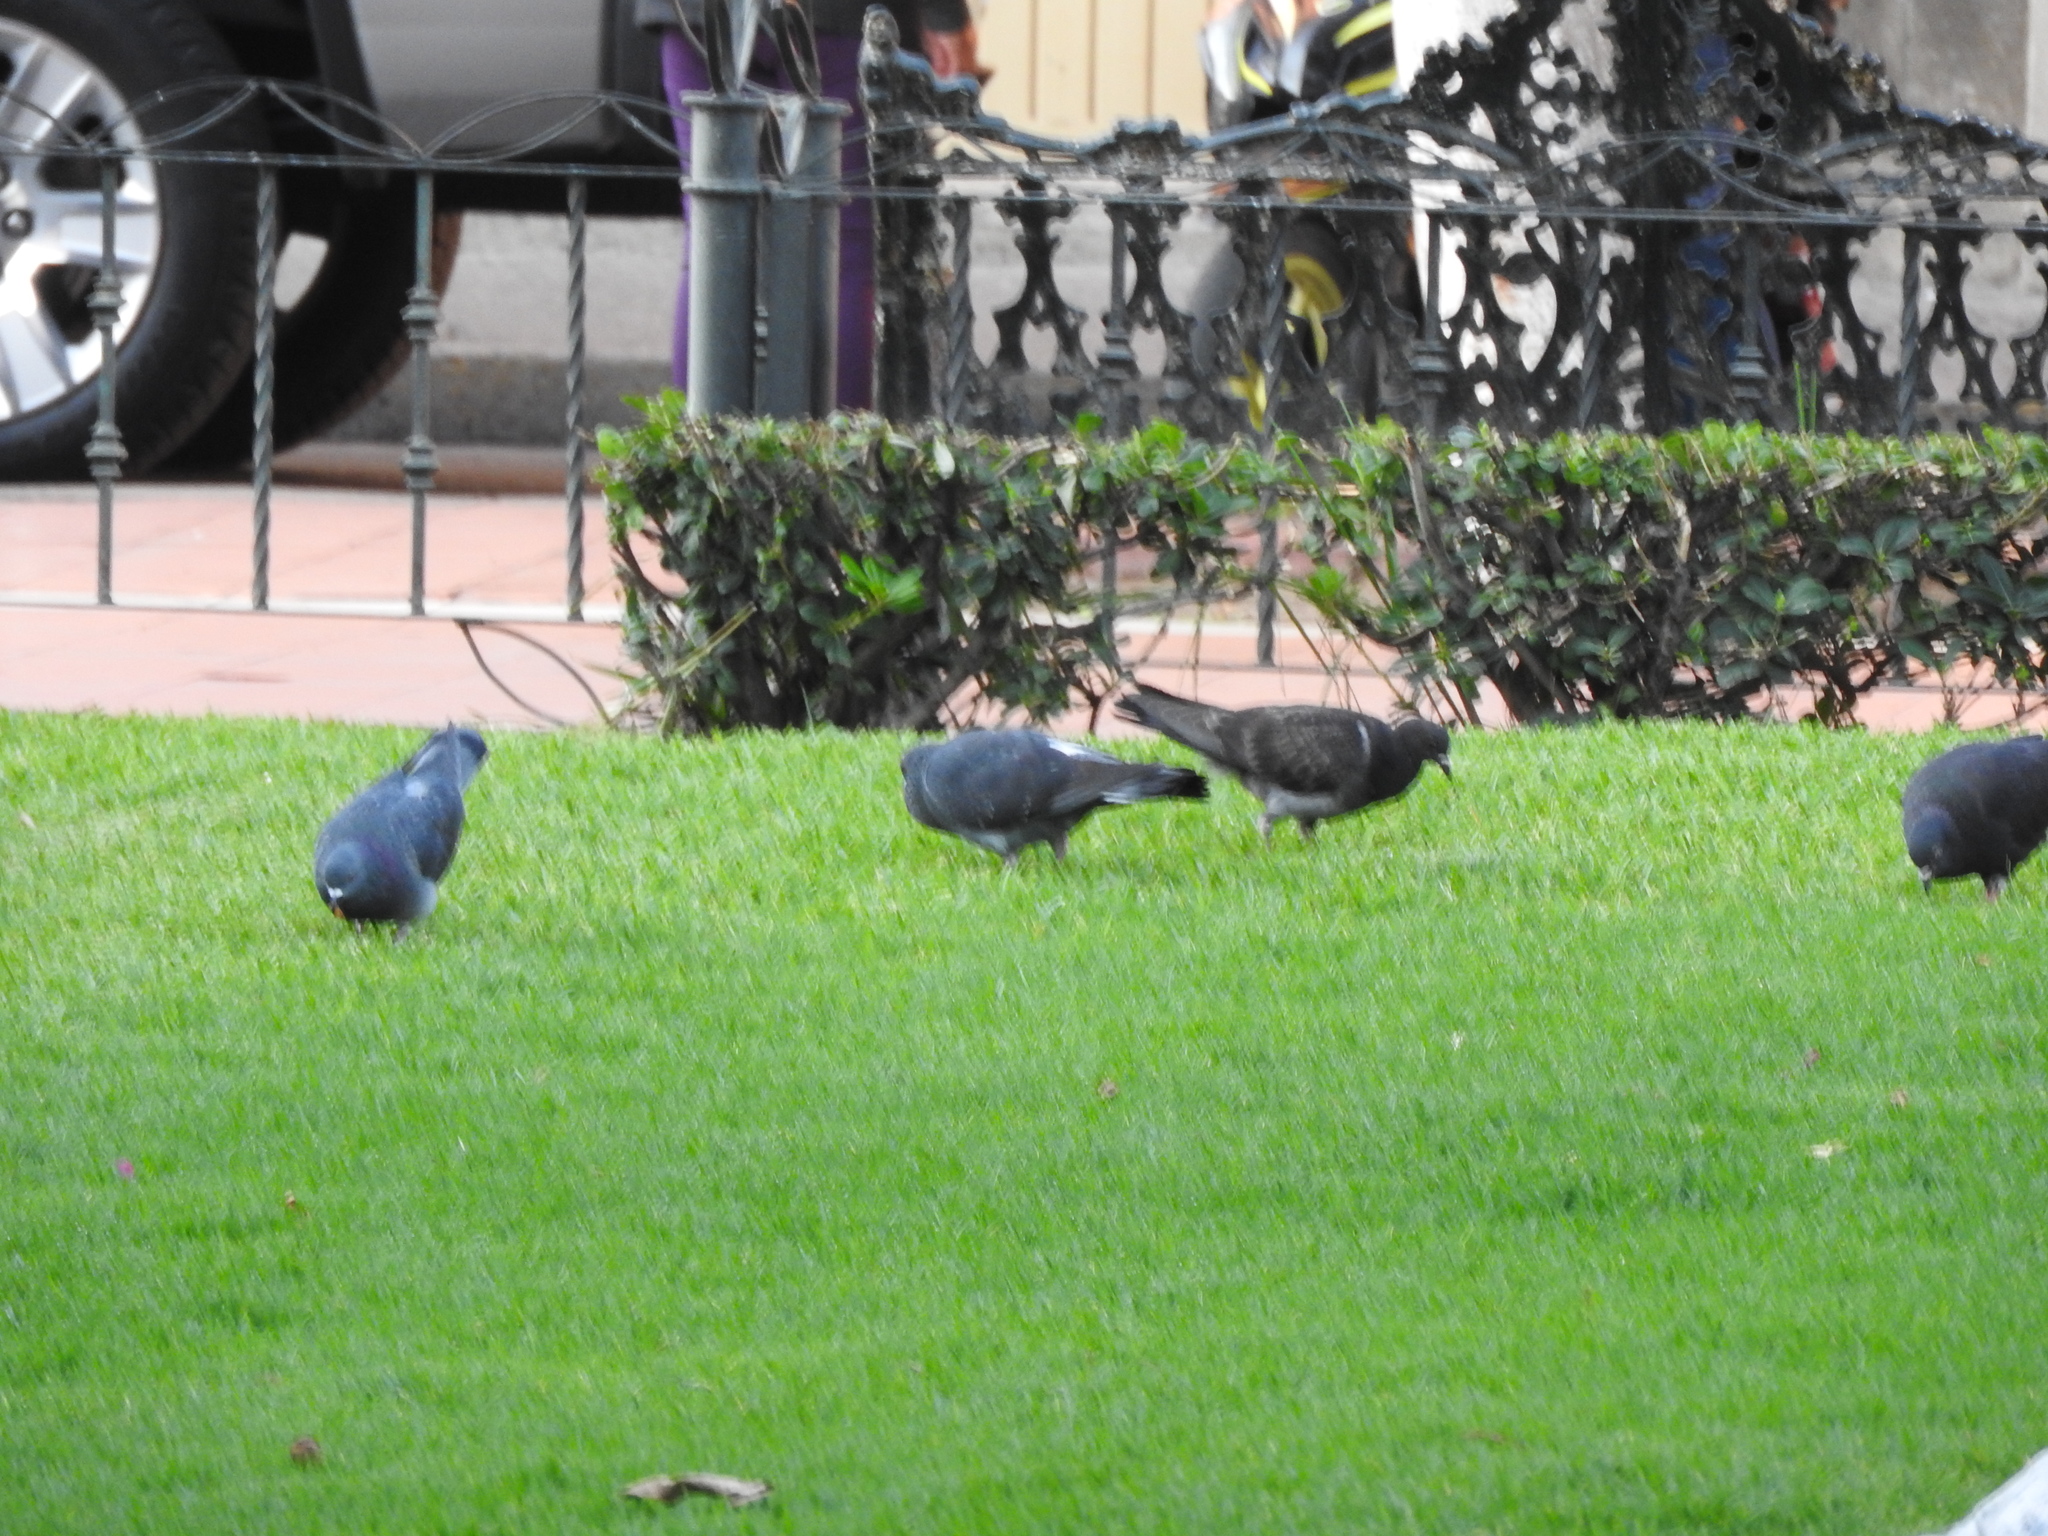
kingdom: Animalia
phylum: Chordata
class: Aves
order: Columbiformes
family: Columbidae
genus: Columba
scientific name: Columba livia
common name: Rock pigeon
